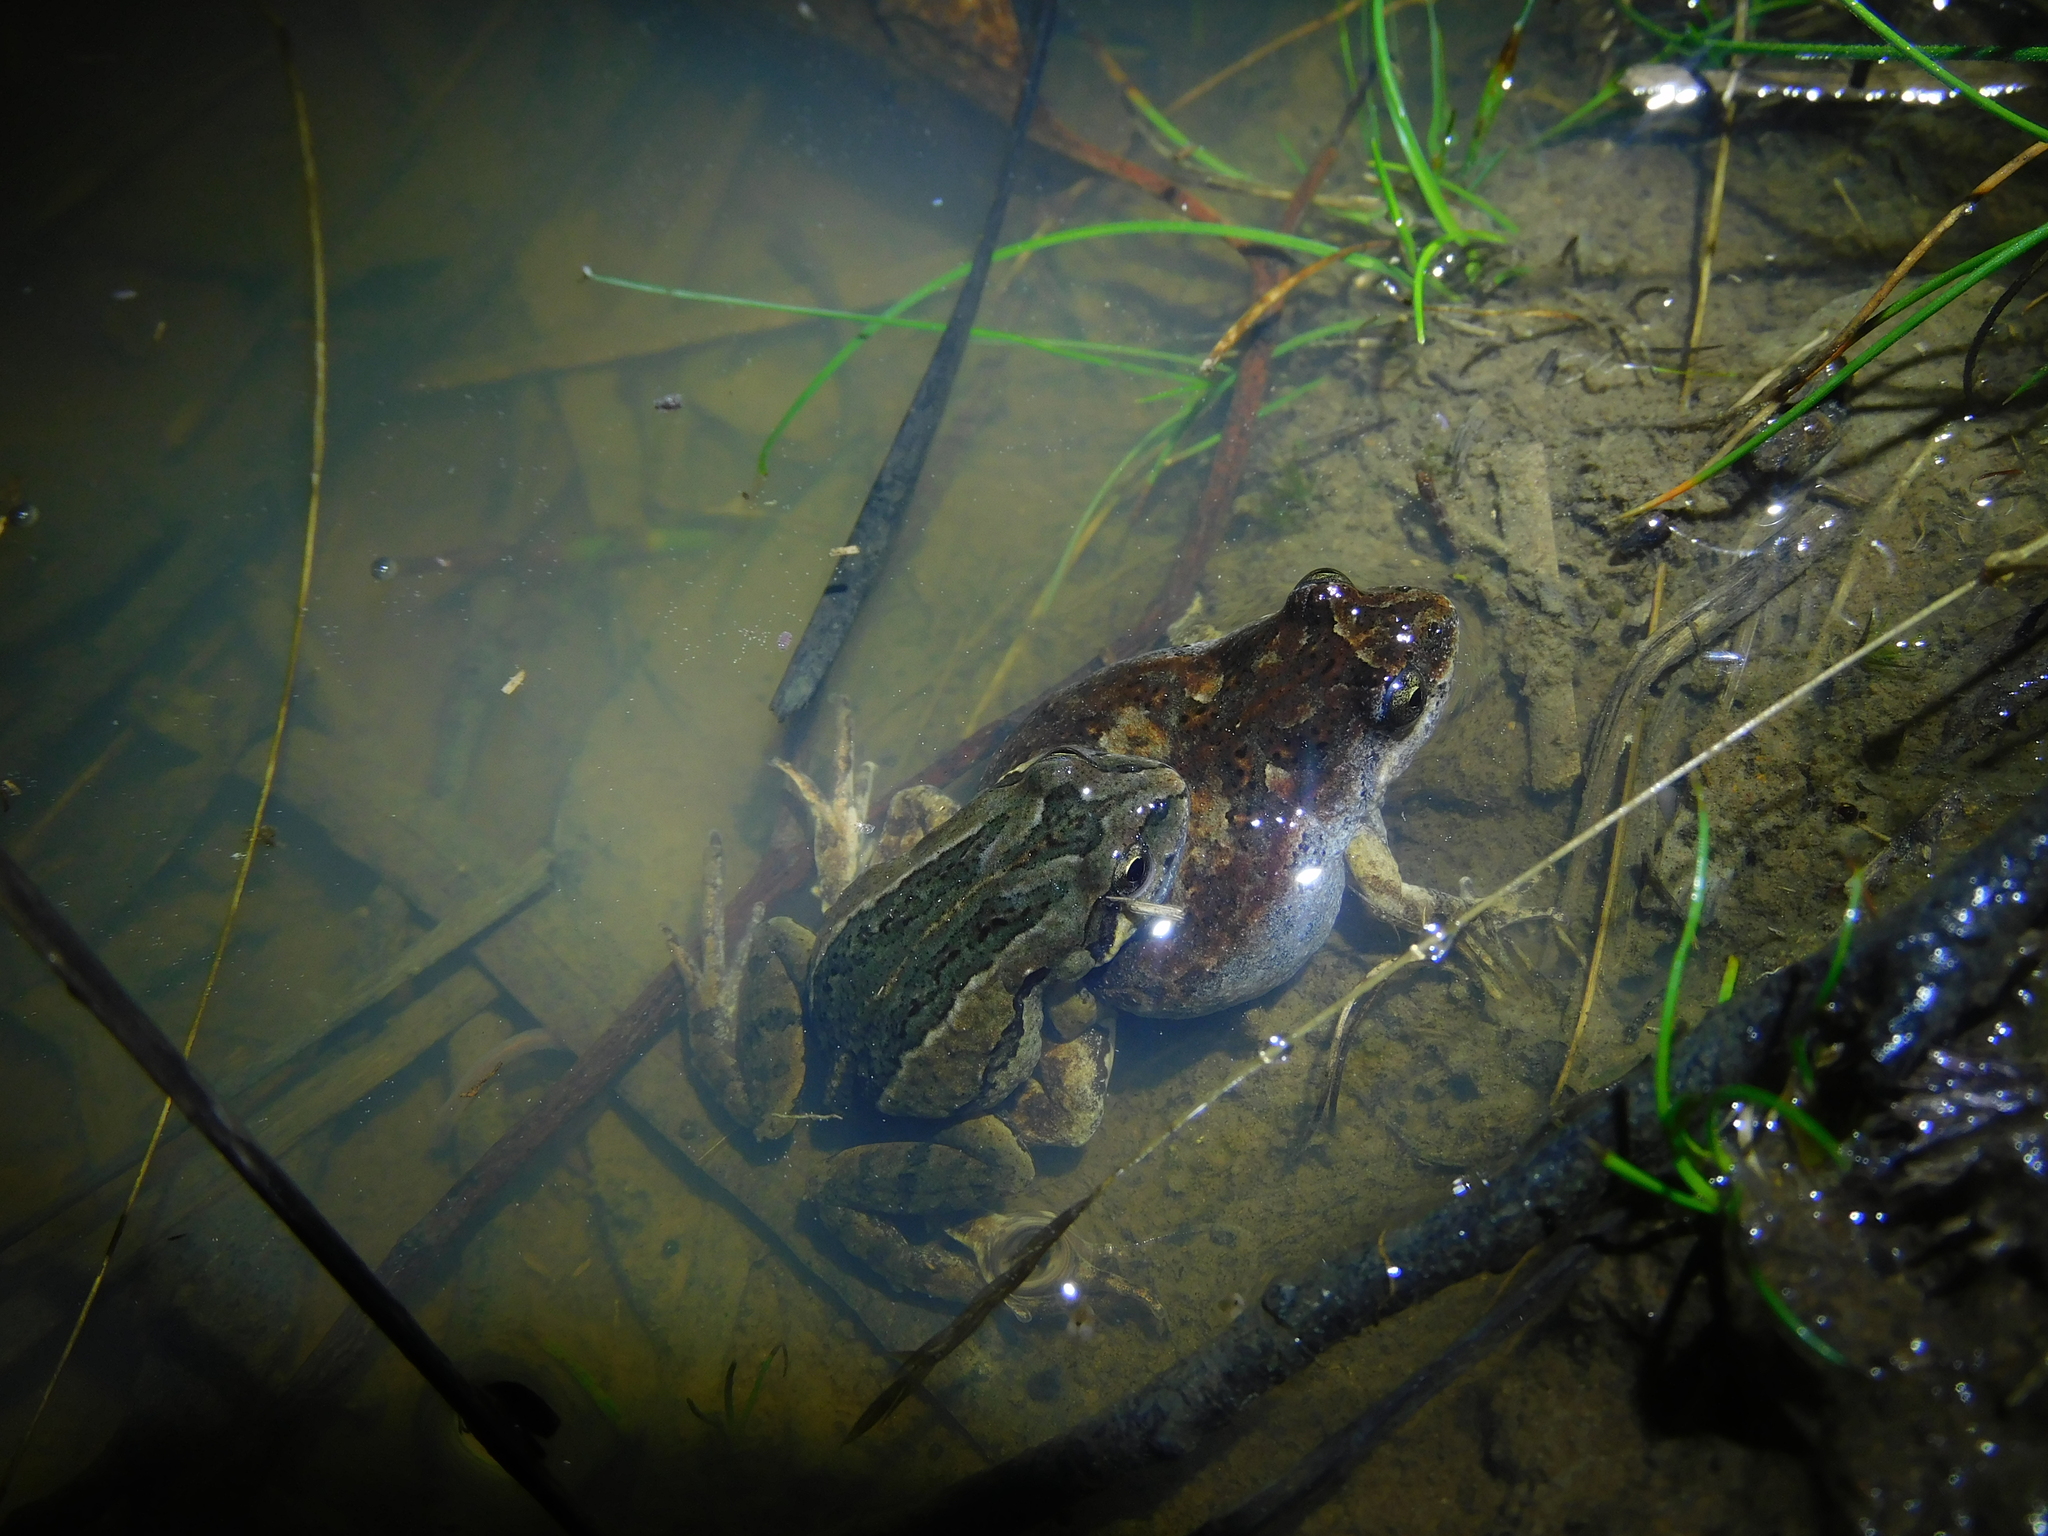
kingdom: Animalia
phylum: Chordata
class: Amphibia
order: Anura
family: Myobatrachidae
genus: Crinia
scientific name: Crinia signifera
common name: Brown froglet
